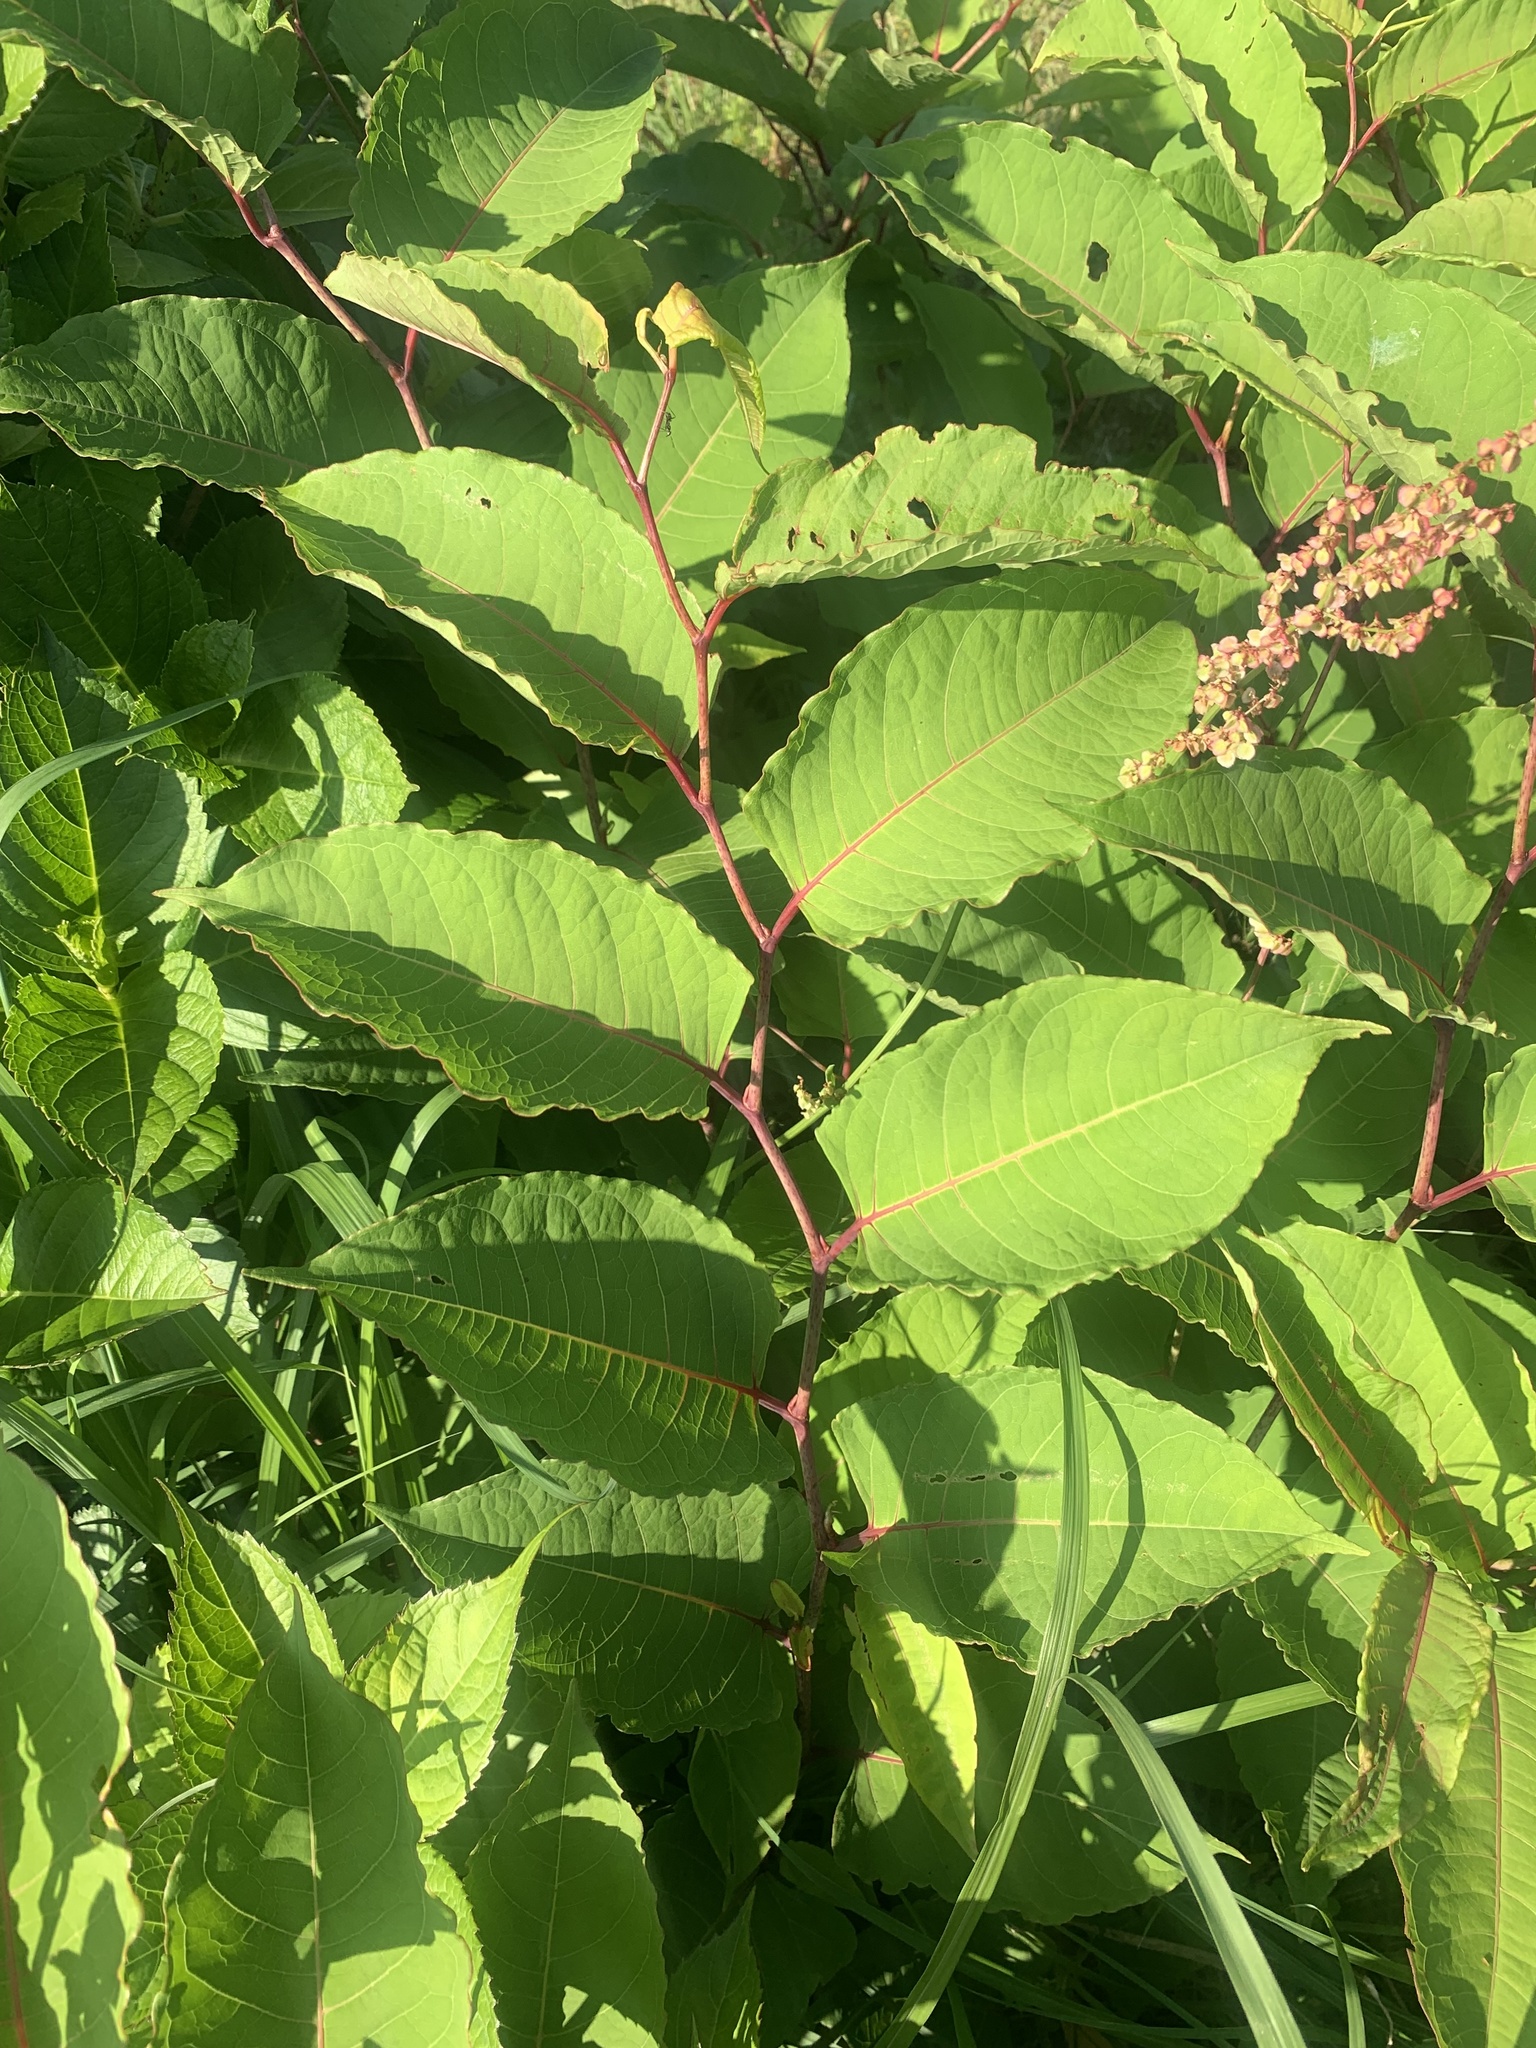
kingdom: Plantae
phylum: Tracheophyta
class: Magnoliopsida
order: Caryophyllales
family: Polygonaceae
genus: Reynoutria
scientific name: Reynoutria japonica
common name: Japanese knotweed
